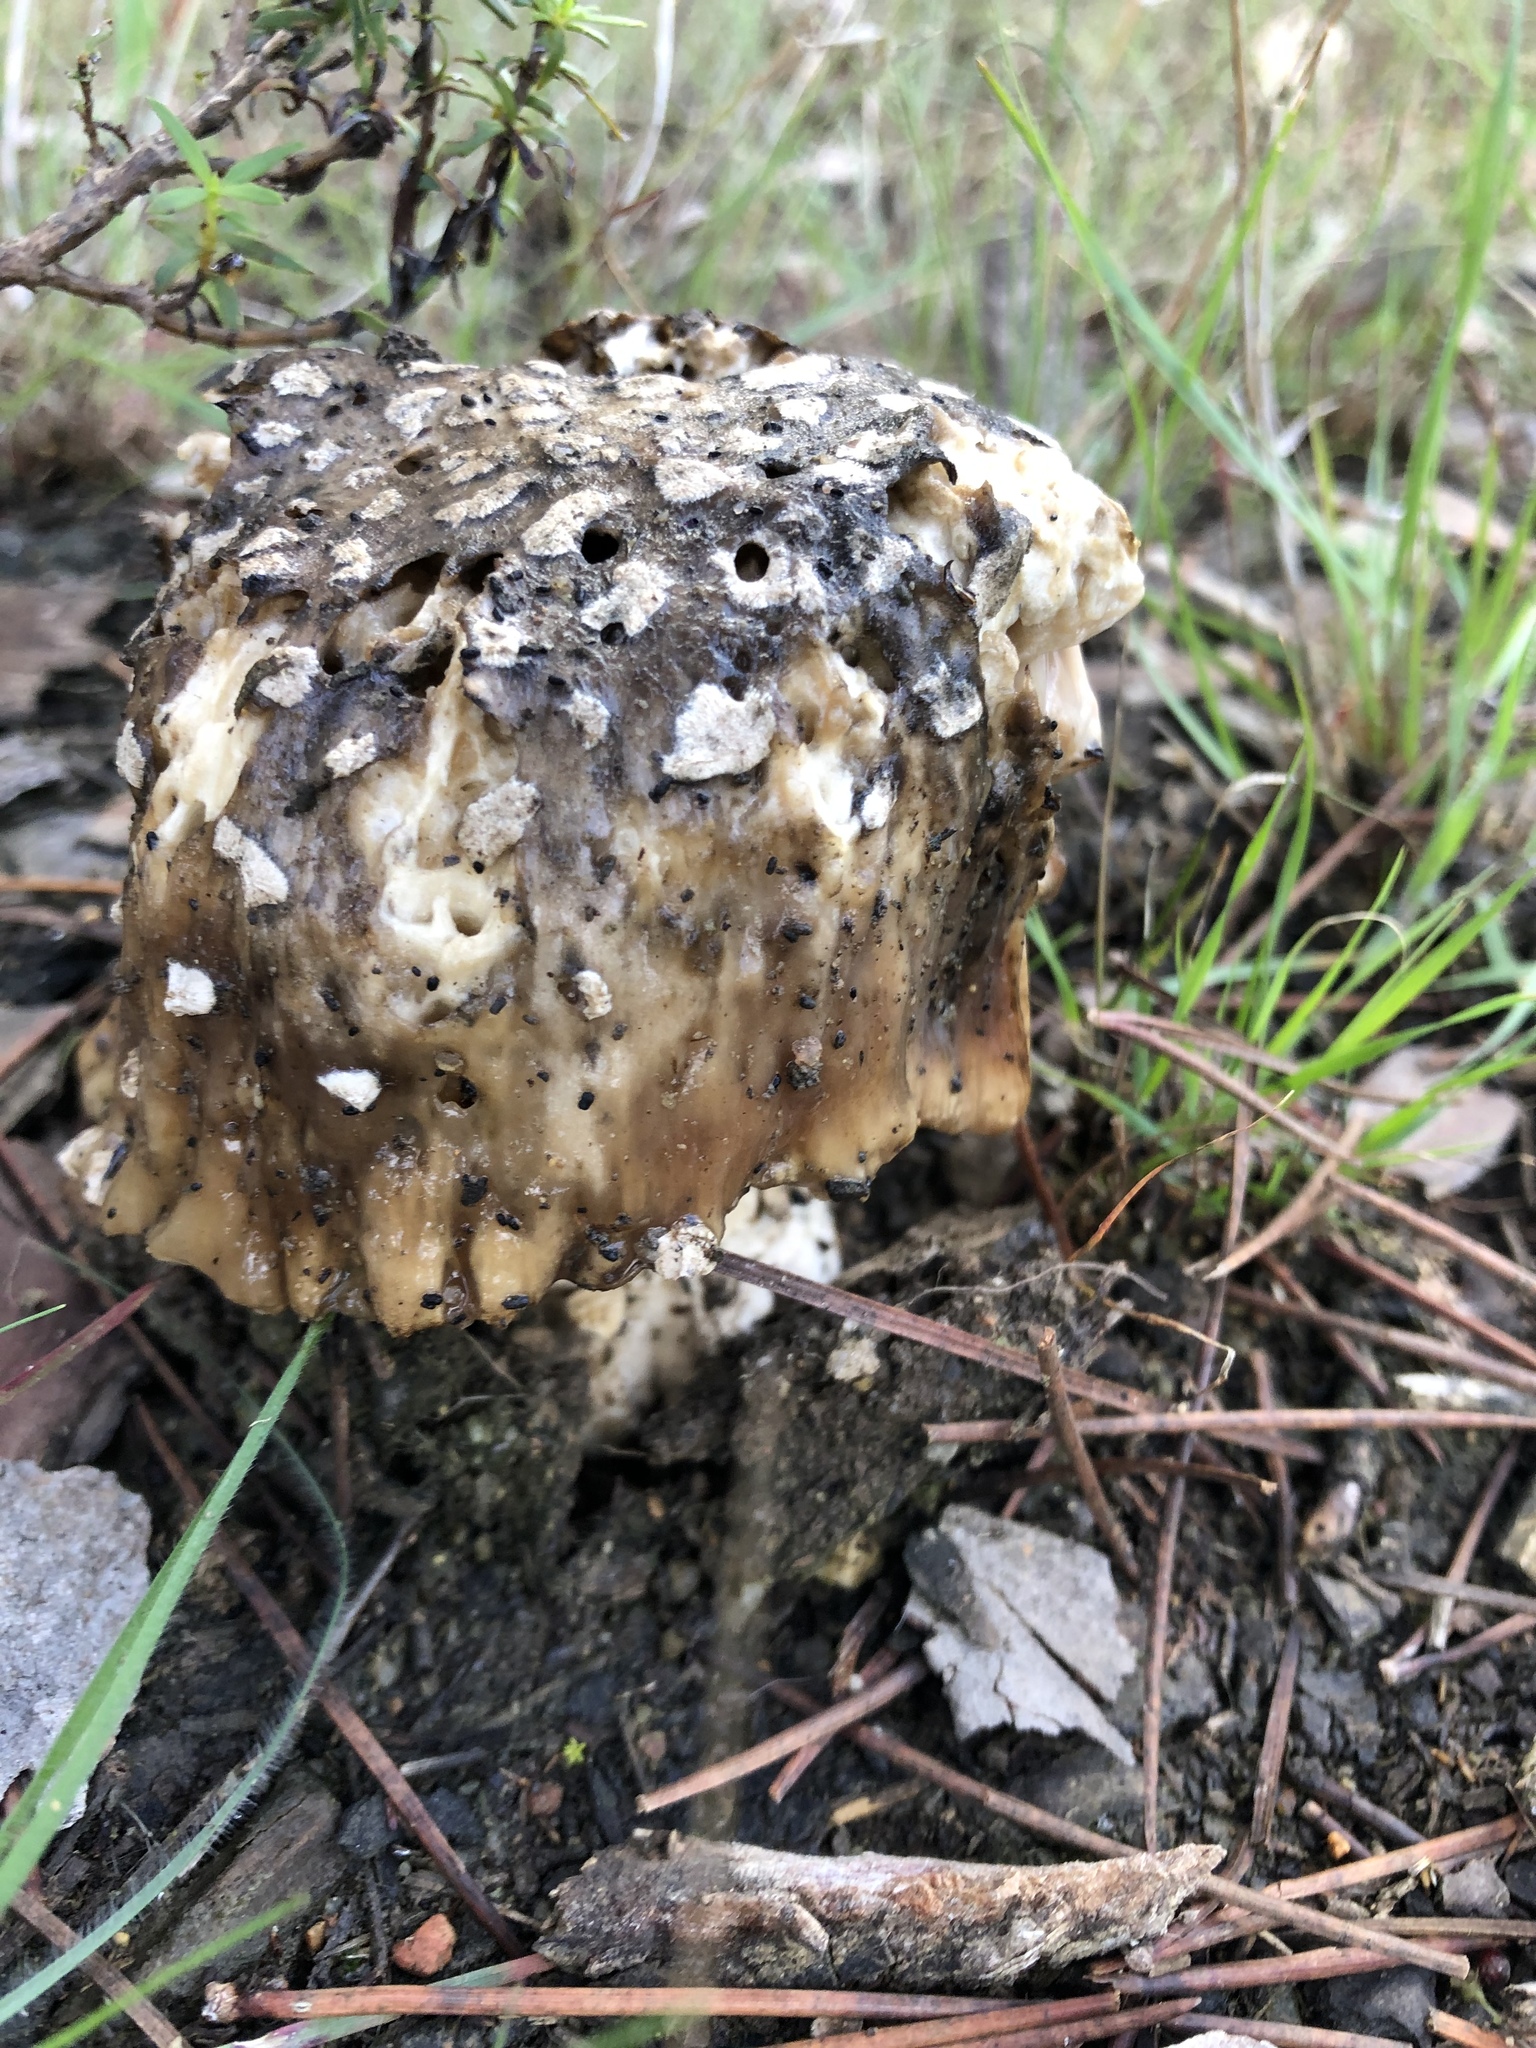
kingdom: Fungi
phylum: Basidiomycota
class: Agaricomycetes
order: Agaricales
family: Amanitaceae
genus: Amanita
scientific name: Amanita pantherina
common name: Panthercap
